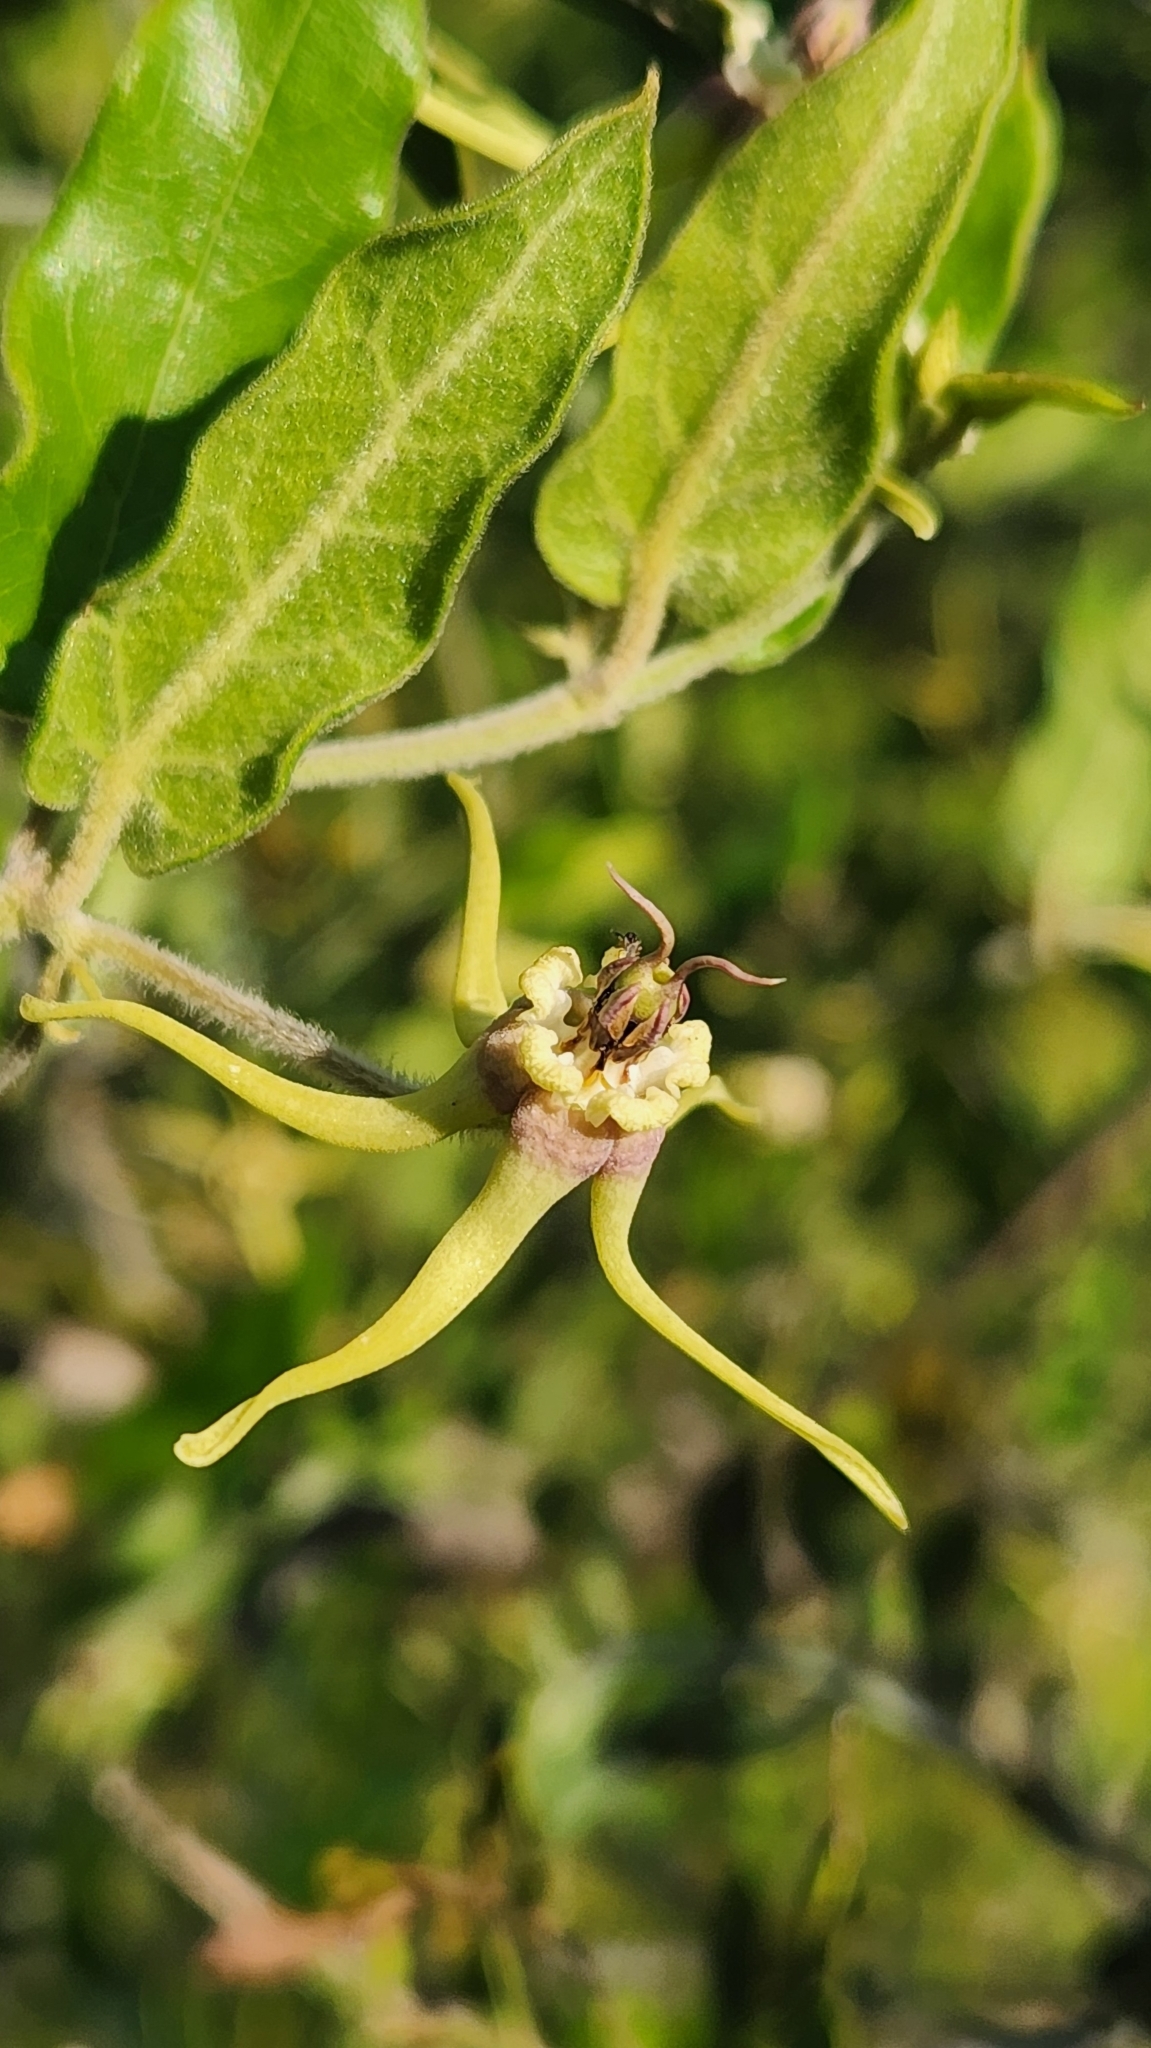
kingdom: Plantae
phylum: Tracheophyta
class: Magnoliopsida
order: Gentianales
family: Apocynaceae
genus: Oxypetalum
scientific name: Oxypetalum pannosum
